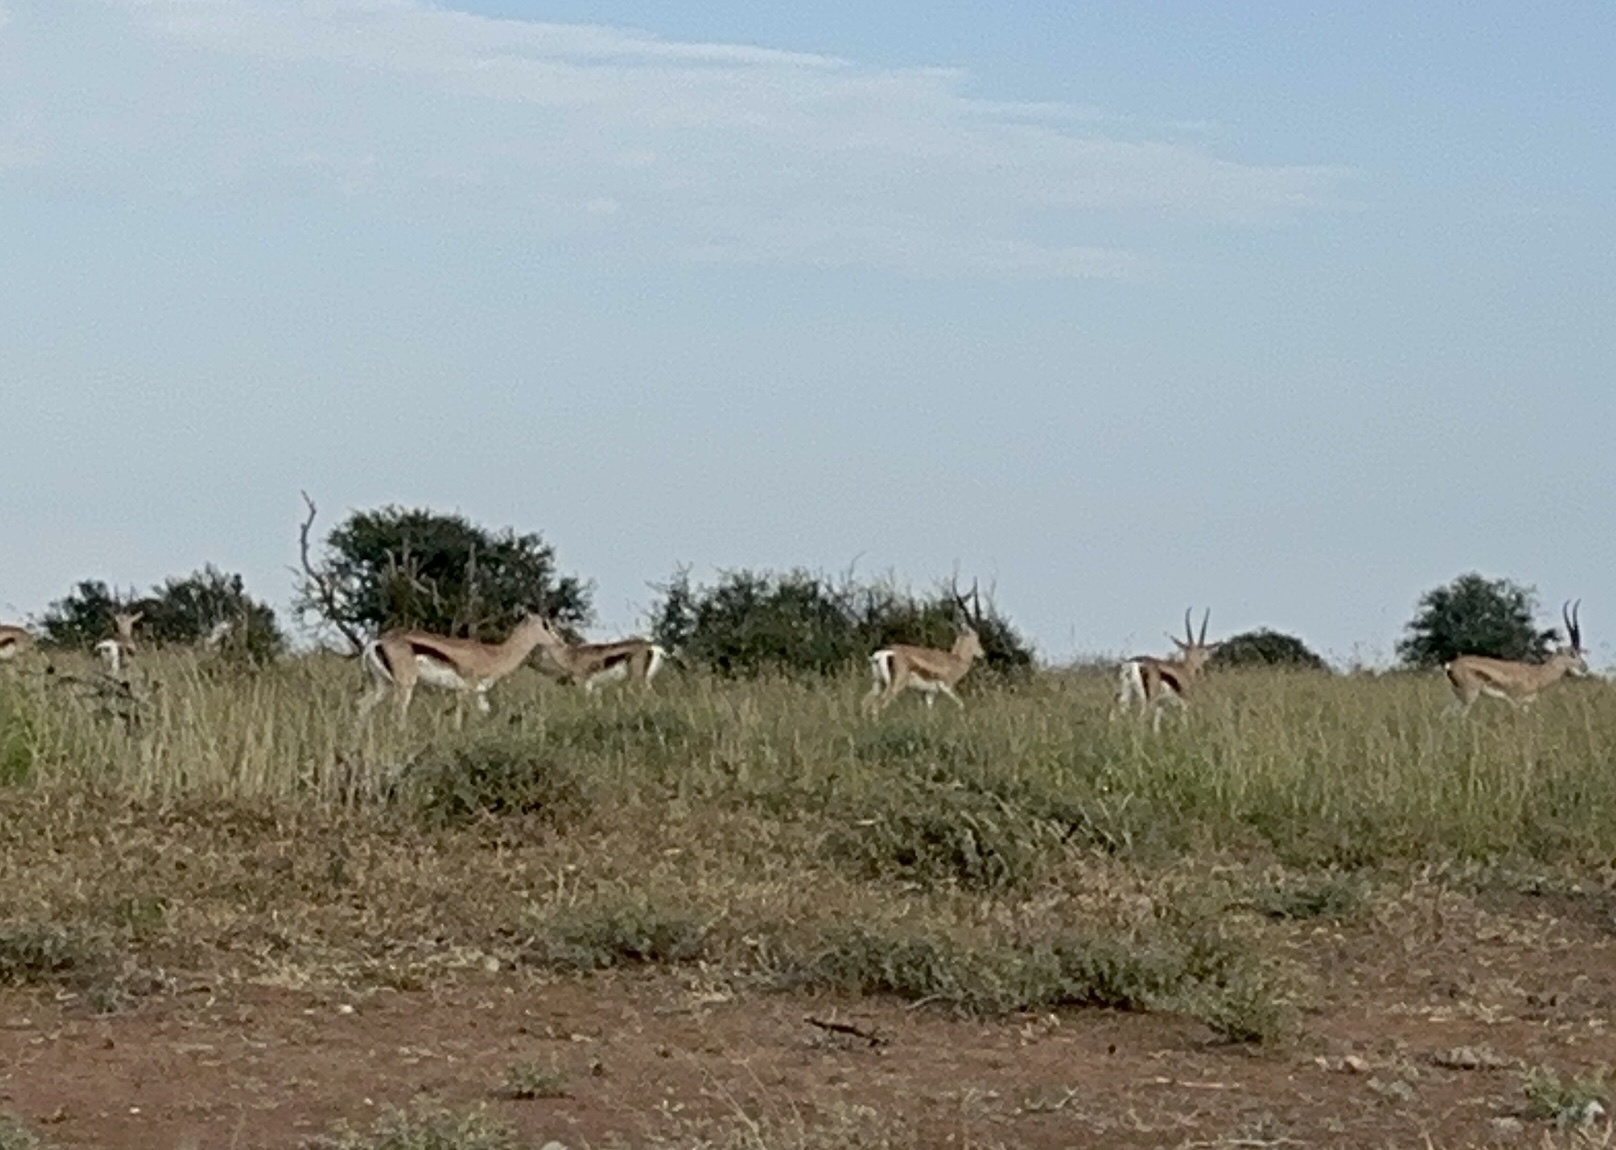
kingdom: Animalia
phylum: Chordata
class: Mammalia
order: Artiodactyla
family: Bovidae
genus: Nanger
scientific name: Nanger granti
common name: Grant's gazelle
